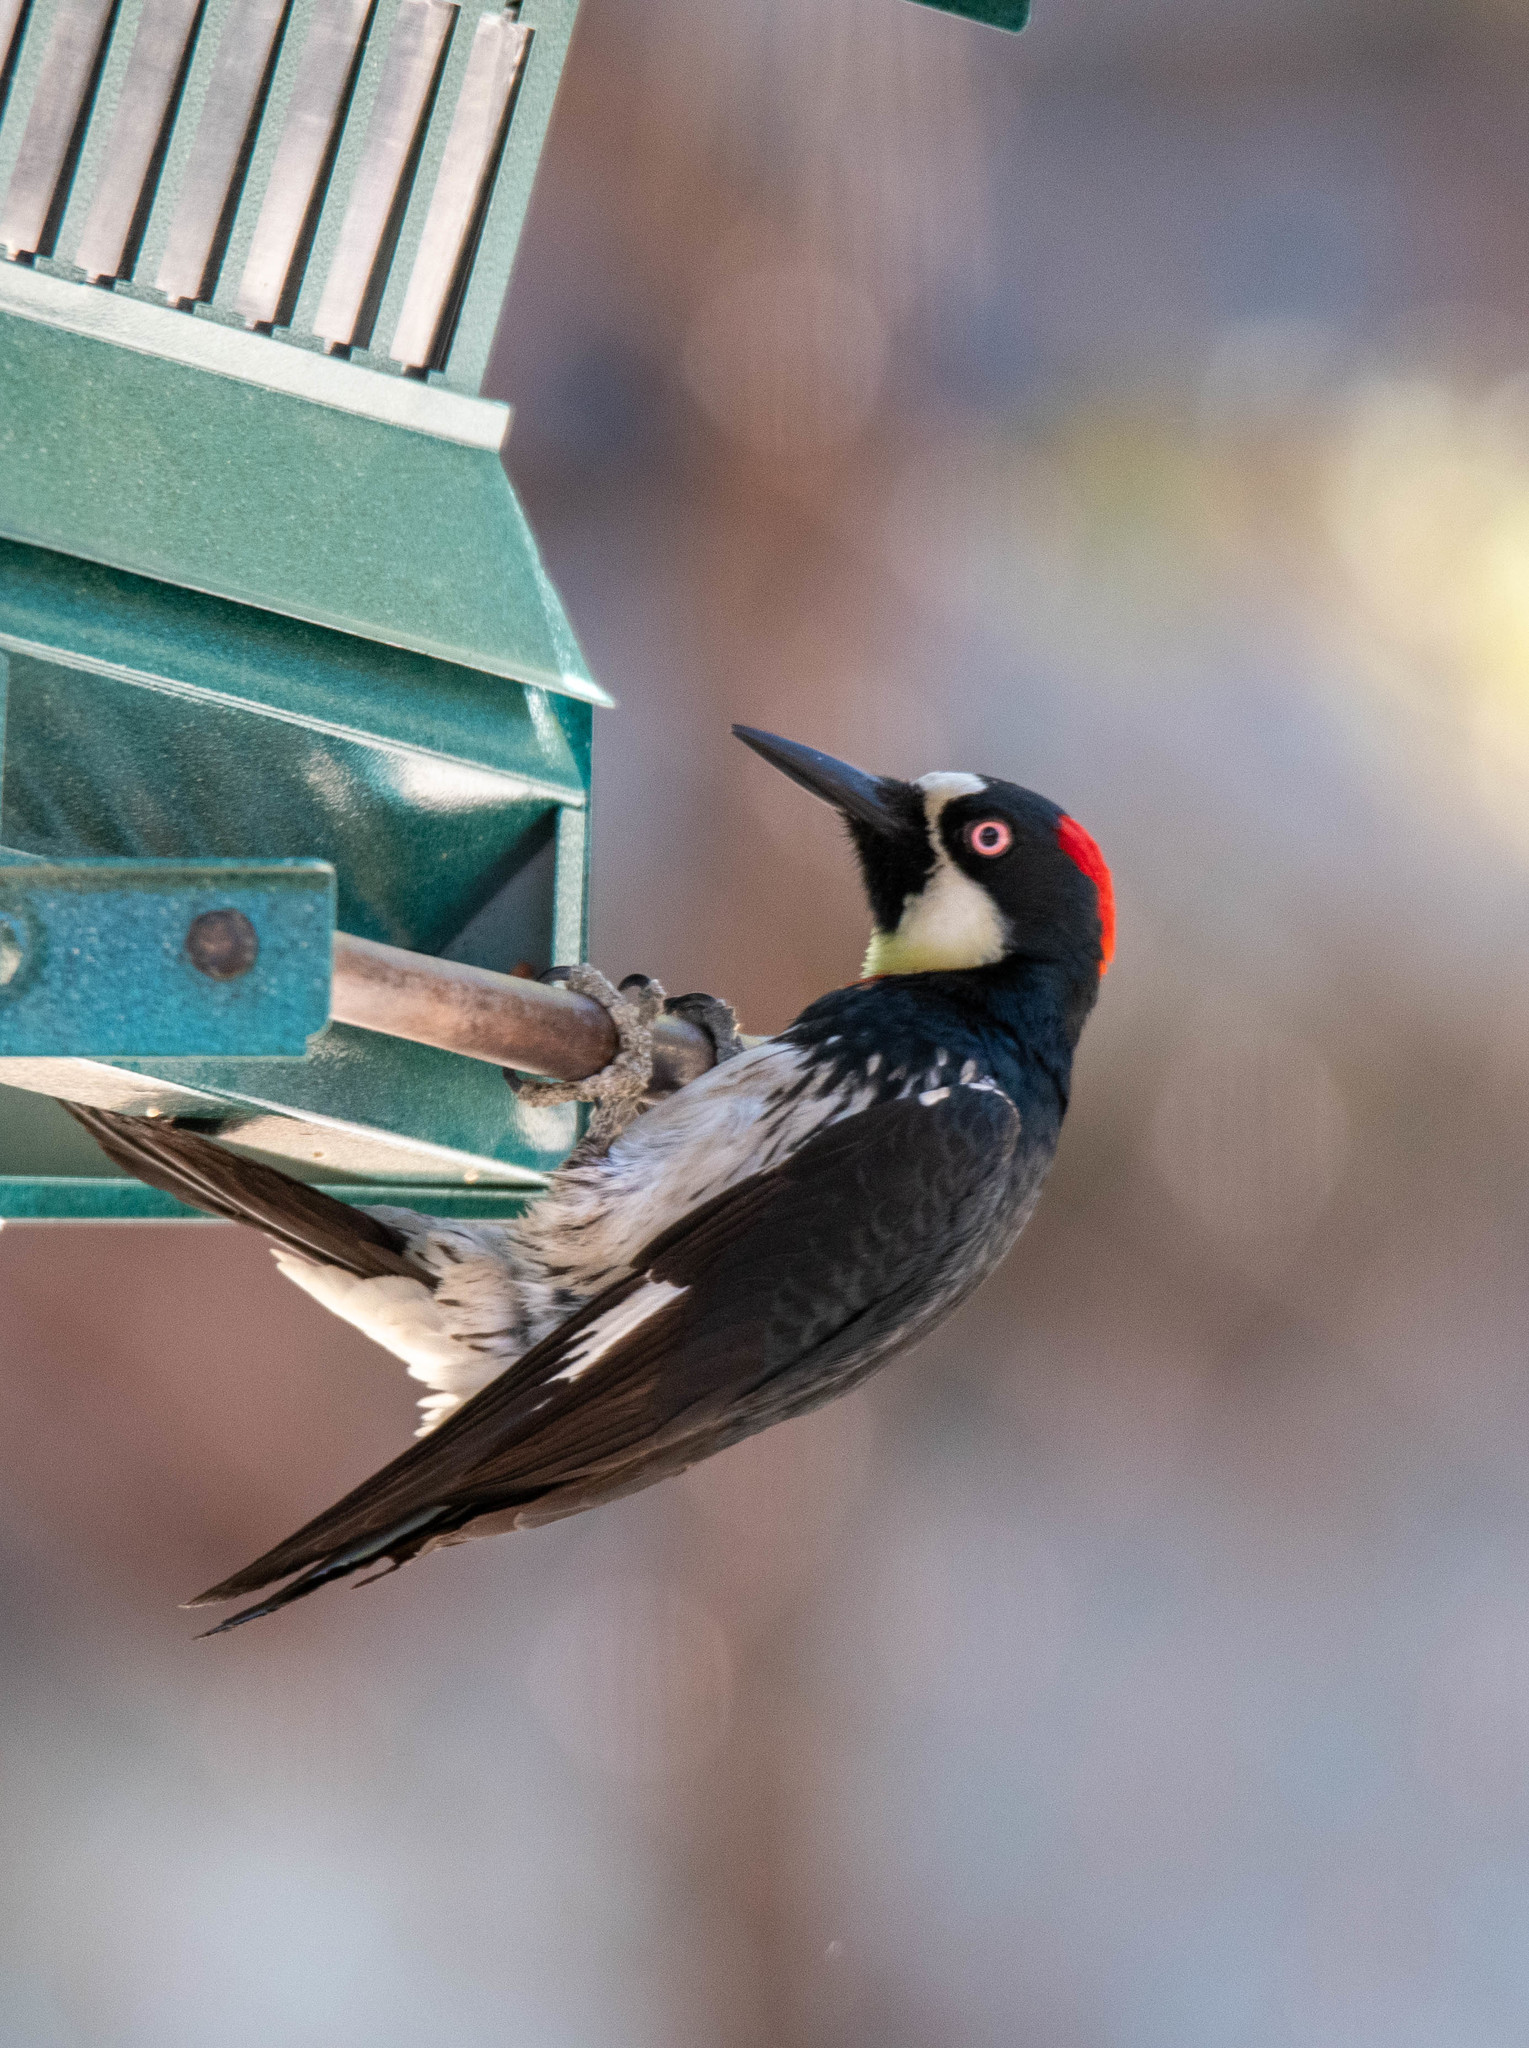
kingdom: Animalia
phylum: Chordata
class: Aves
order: Piciformes
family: Picidae
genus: Melanerpes
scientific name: Melanerpes formicivorus
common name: Acorn woodpecker
